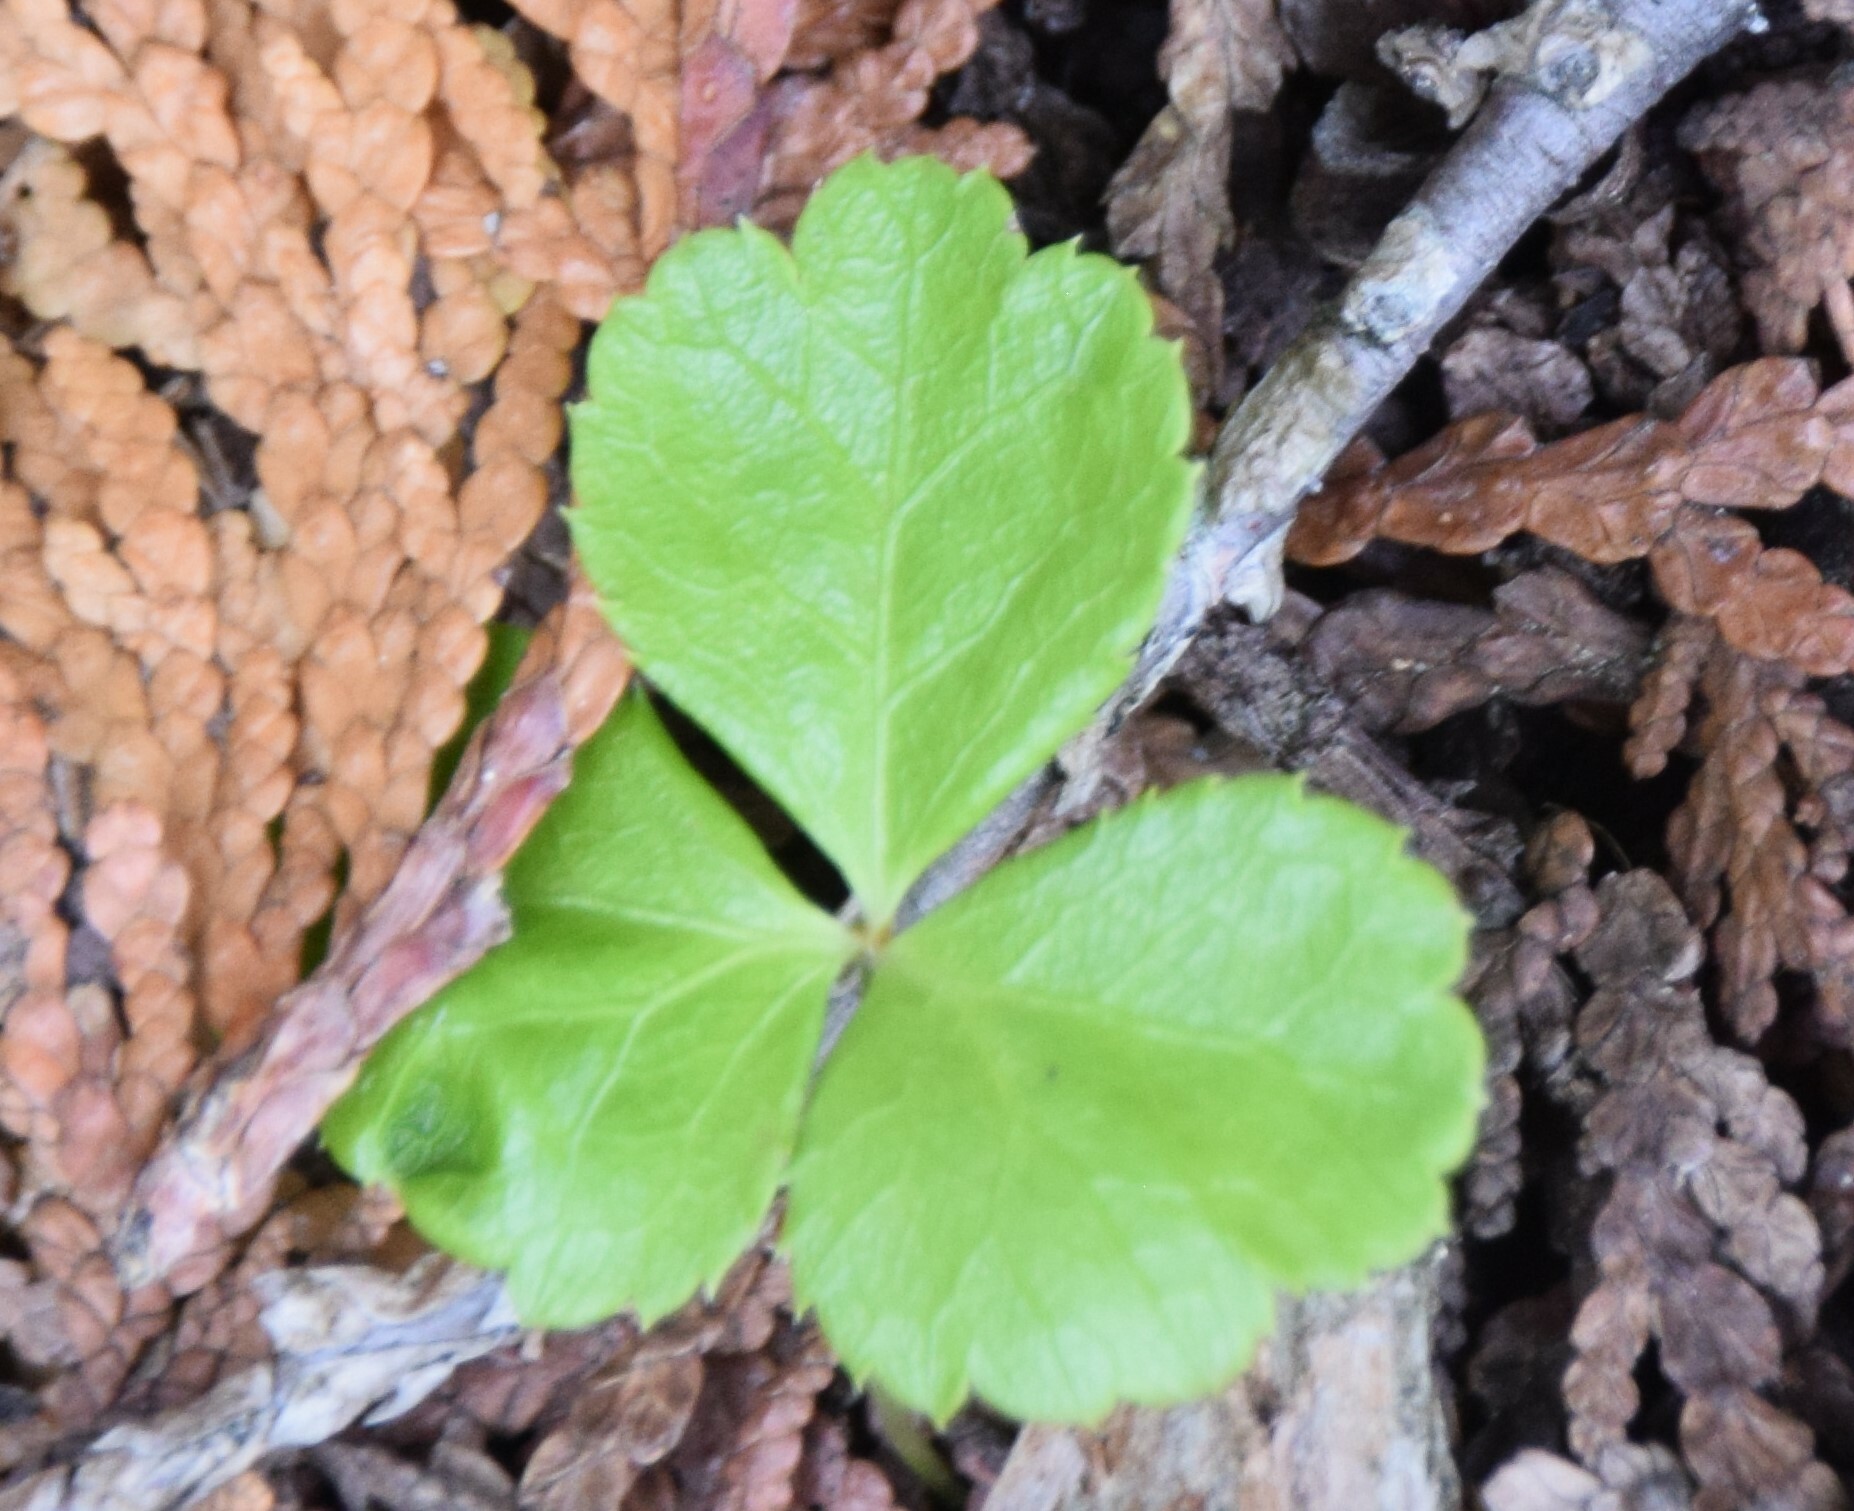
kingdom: Plantae
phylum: Tracheophyta
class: Magnoliopsida
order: Ranunculales
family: Ranunculaceae
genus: Coptis
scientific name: Coptis trifolia
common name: Canker-root
